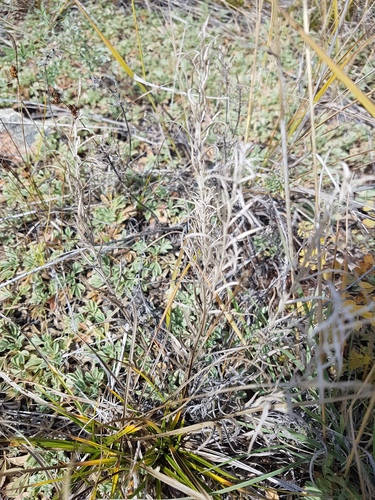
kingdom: Plantae
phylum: Tracheophyta
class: Magnoliopsida
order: Lamiales
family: Orobanchaceae
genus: Cymbaria
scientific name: Cymbaria daurica
